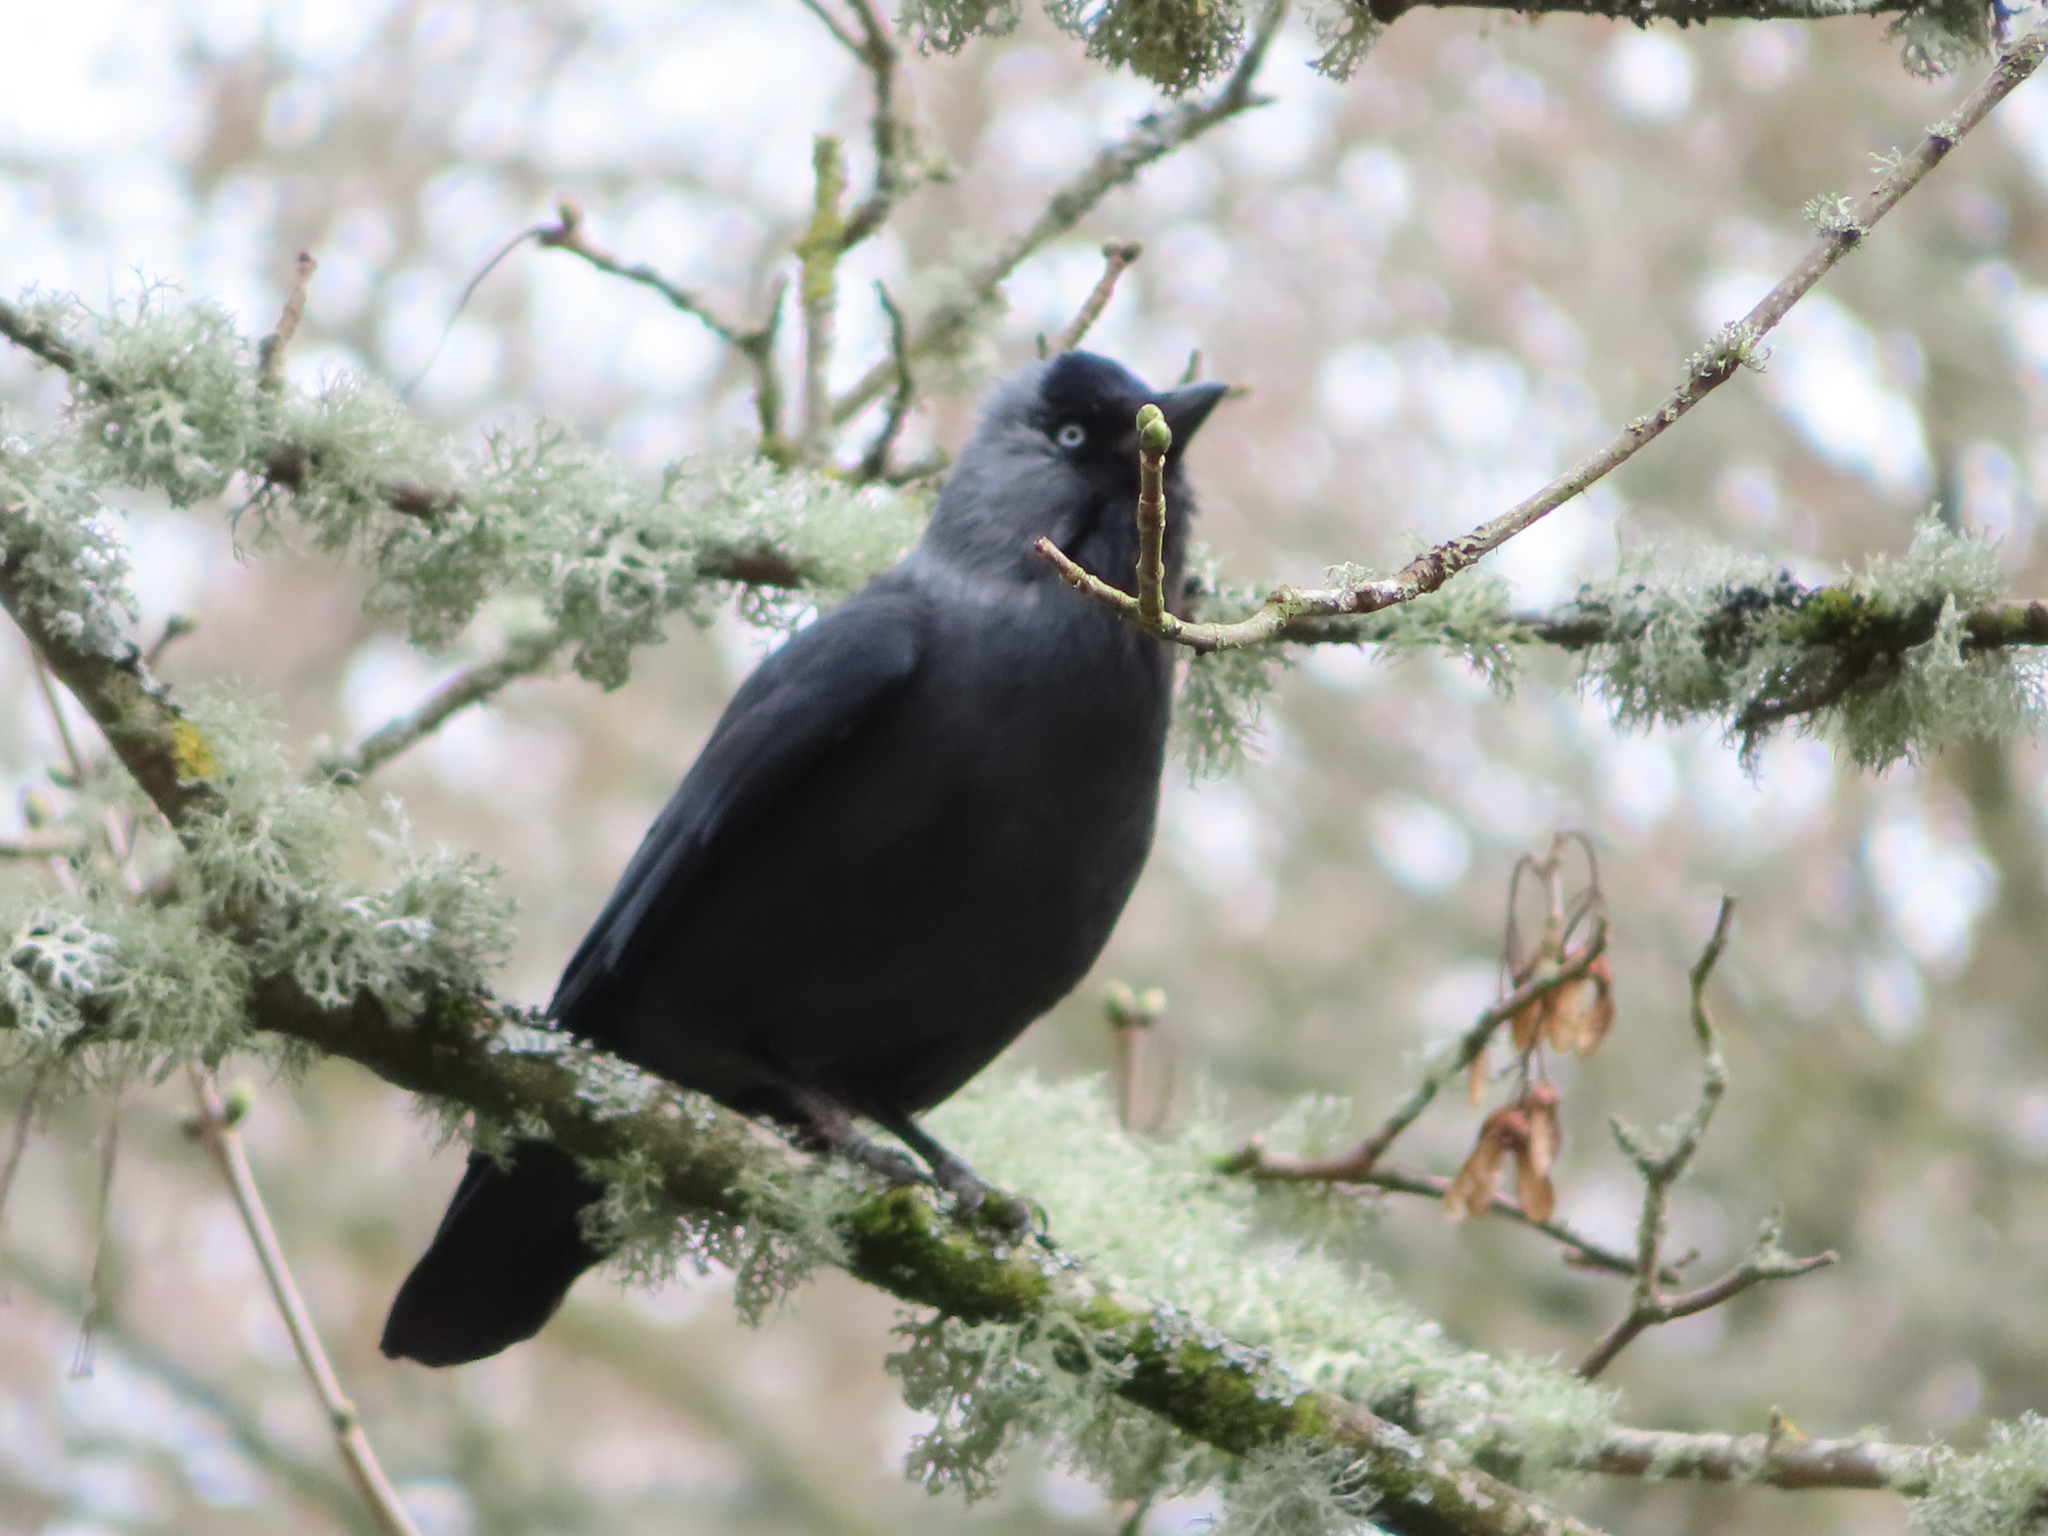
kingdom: Animalia
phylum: Chordata
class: Aves
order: Passeriformes
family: Corvidae
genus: Coloeus
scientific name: Coloeus monedula
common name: Western jackdaw
